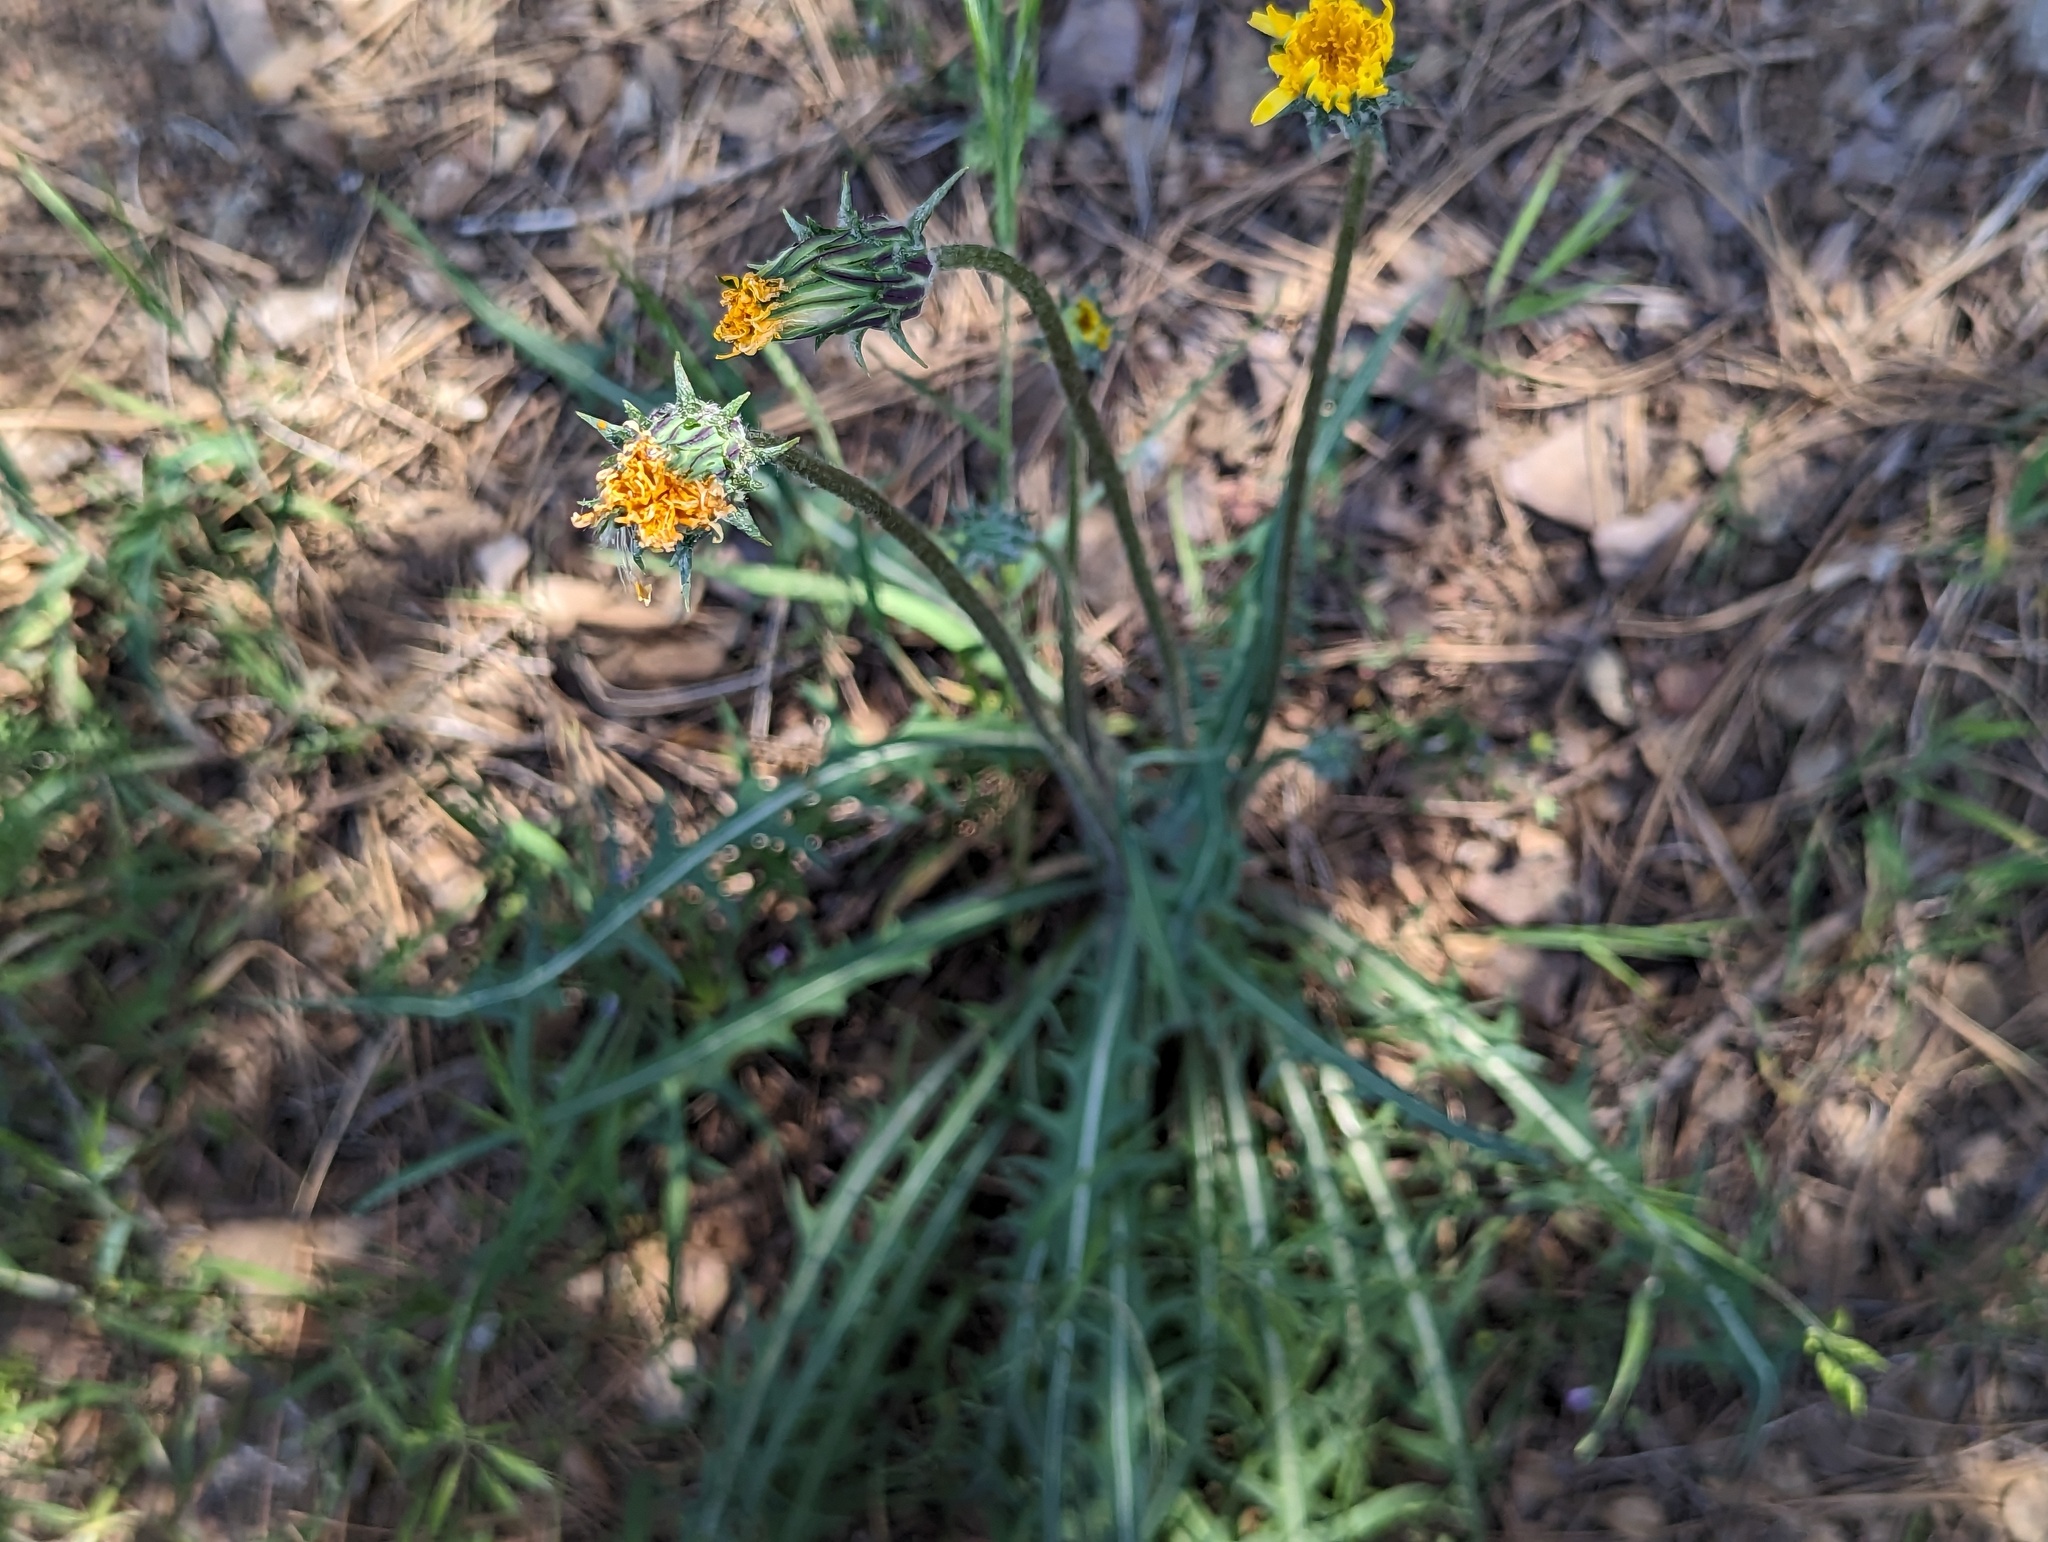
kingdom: Plantae
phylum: Tracheophyta
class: Magnoliopsida
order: Asterales
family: Asteraceae
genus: Agoseris
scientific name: Agoseris retrorsa
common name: Spearleaf agoseris
